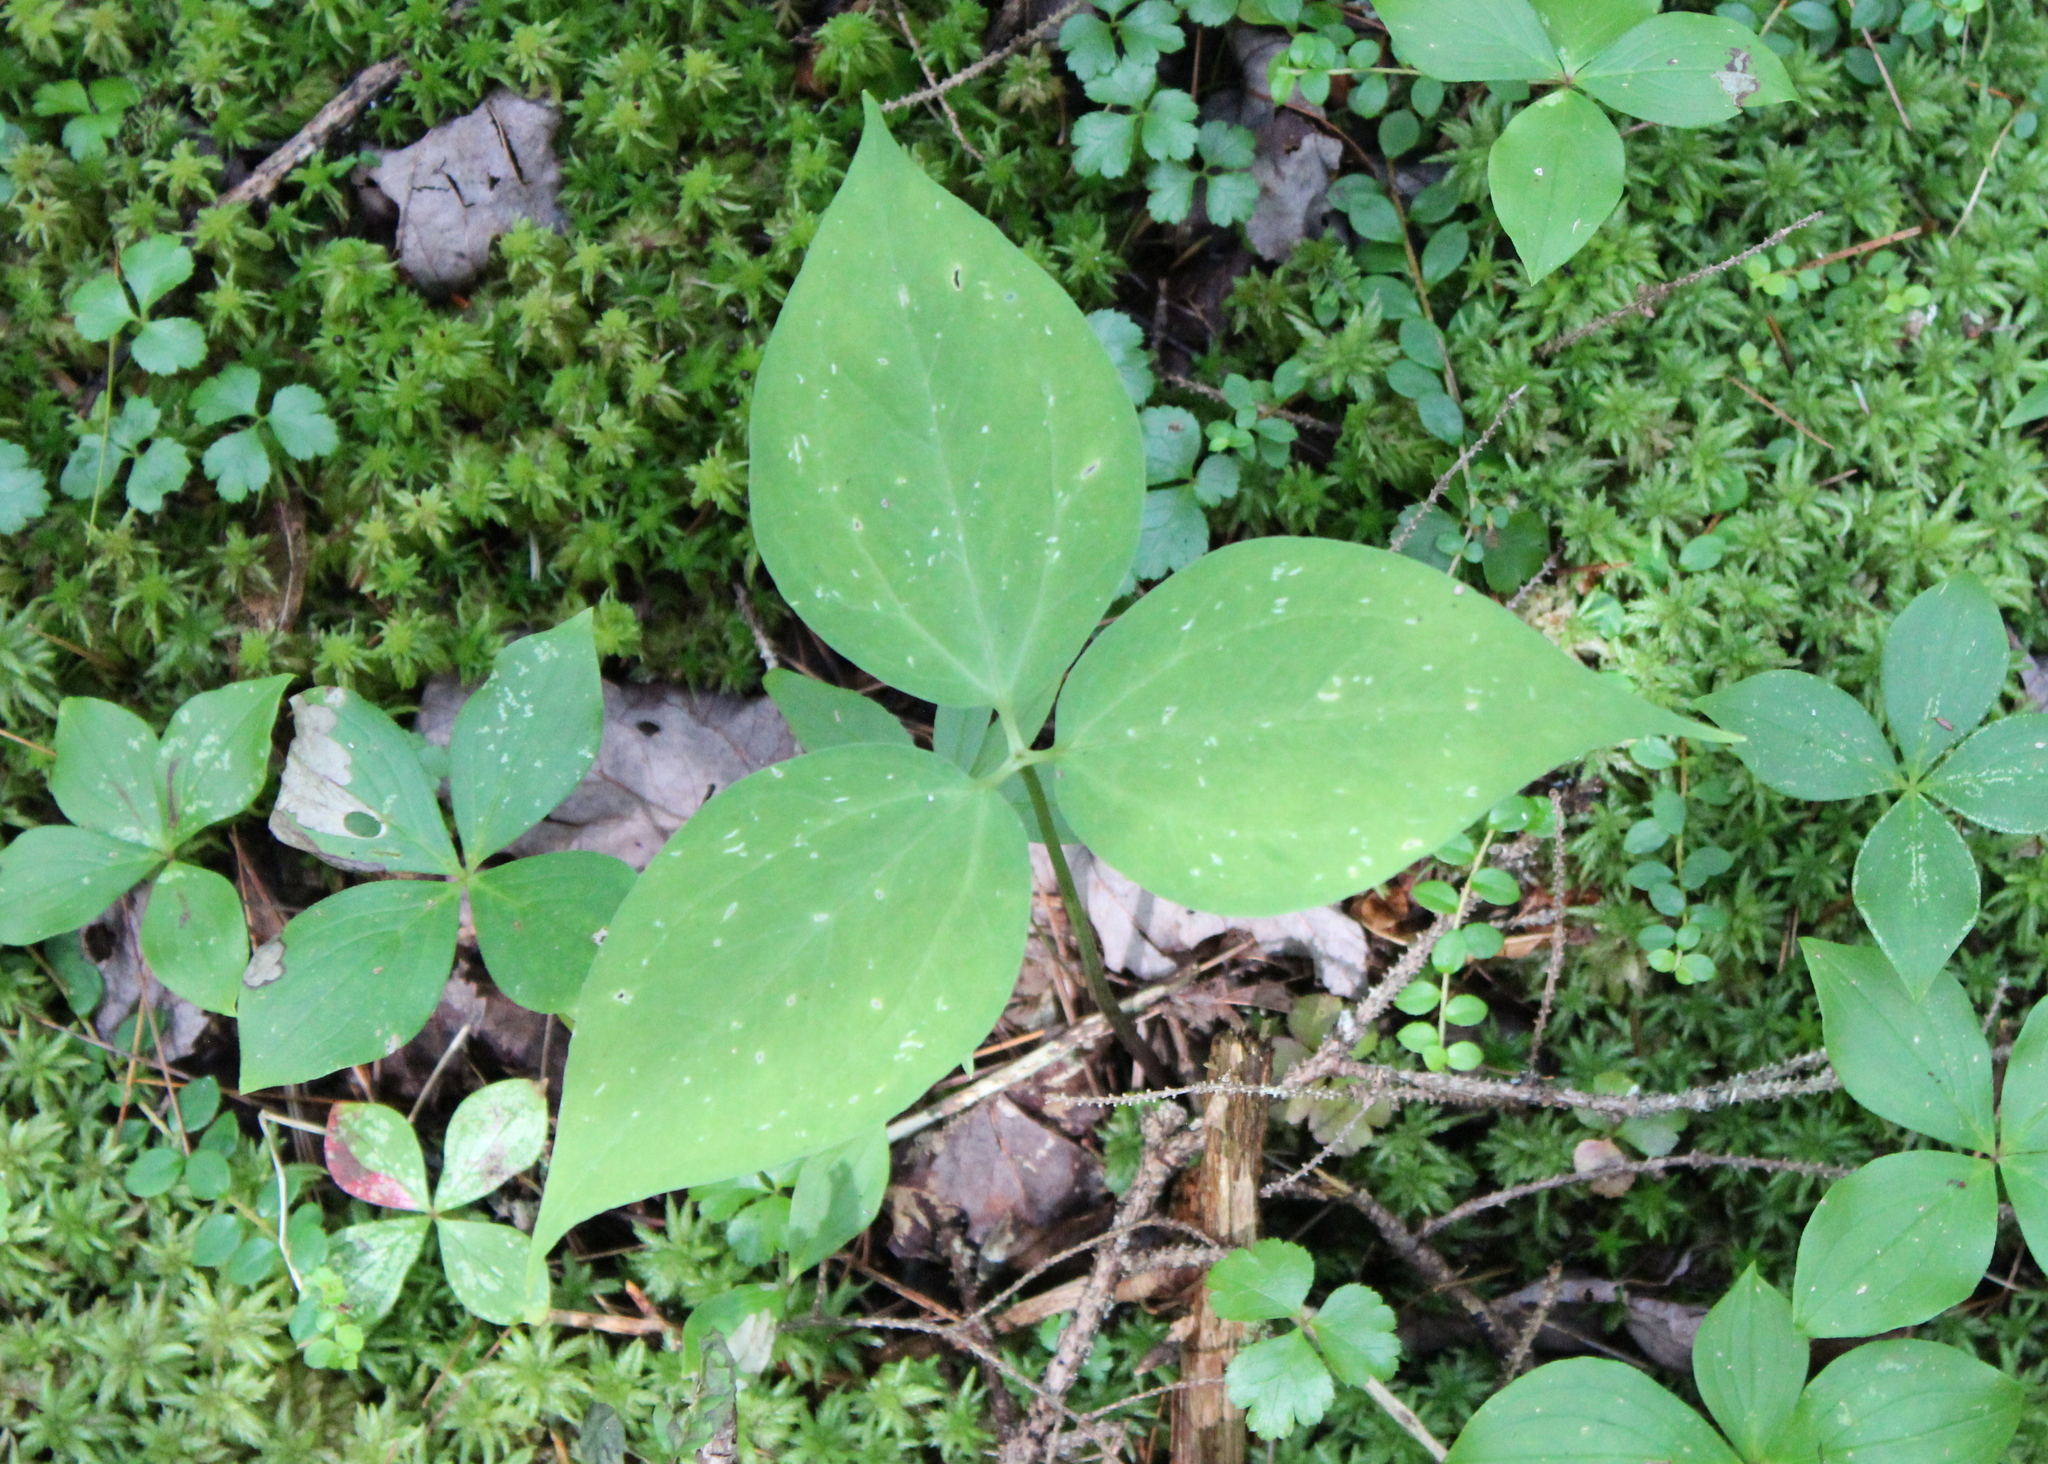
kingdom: Plantae
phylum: Tracheophyta
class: Liliopsida
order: Liliales
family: Melanthiaceae
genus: Trillium
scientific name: Trillium undulatum
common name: Paint trillium
